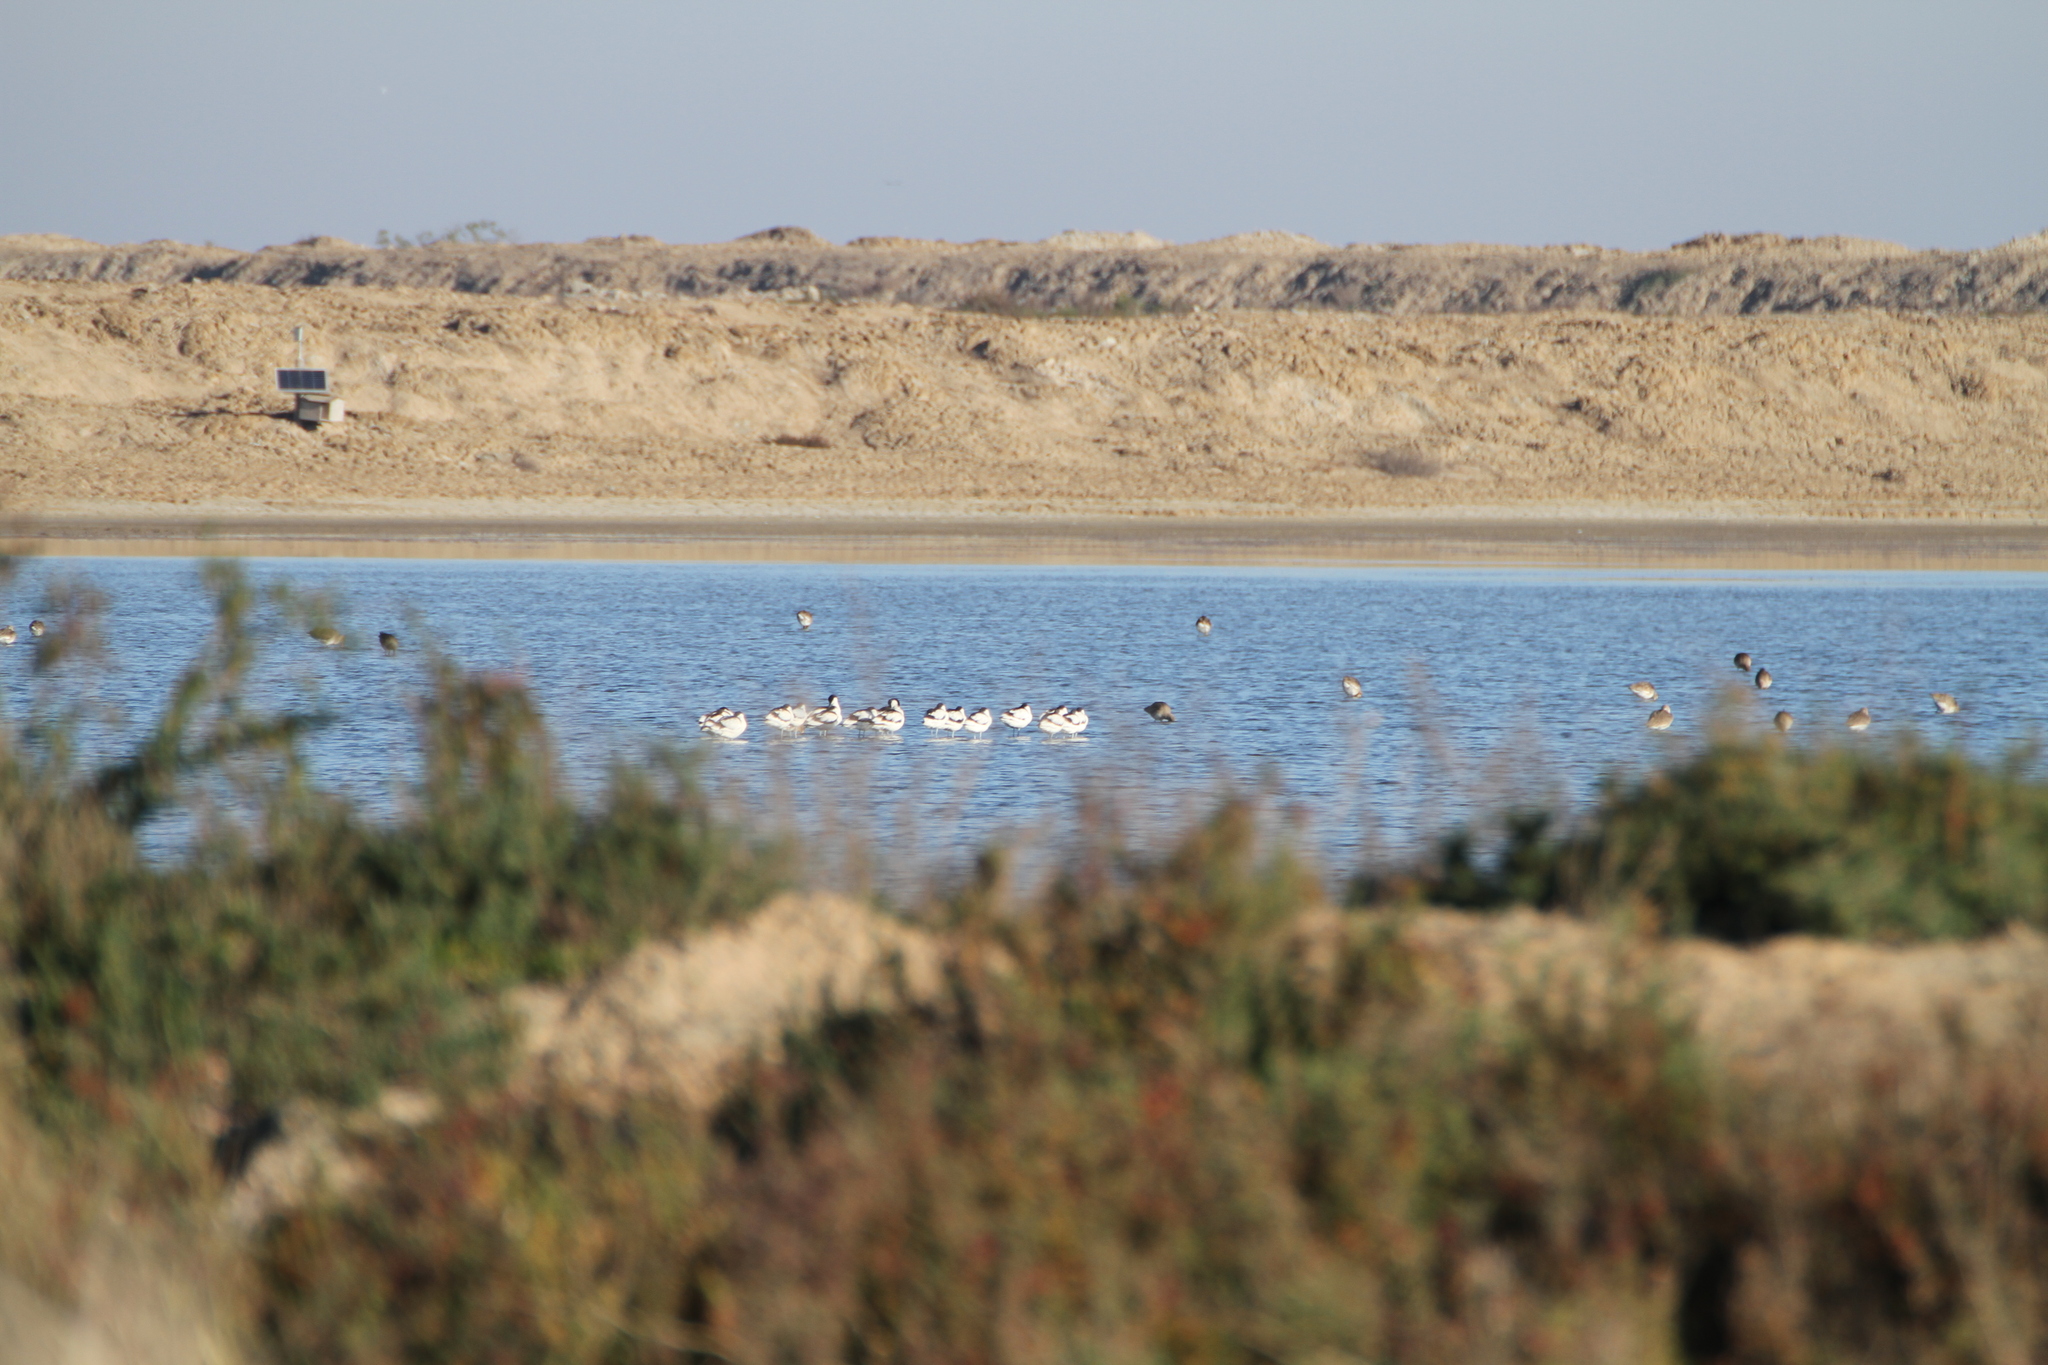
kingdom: Animalia
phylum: Chordata
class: Aves
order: Charadriiformes
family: Recurvirostridae
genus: Recurvirostra
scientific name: Recurvirostra avosetta
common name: Pied avocet
